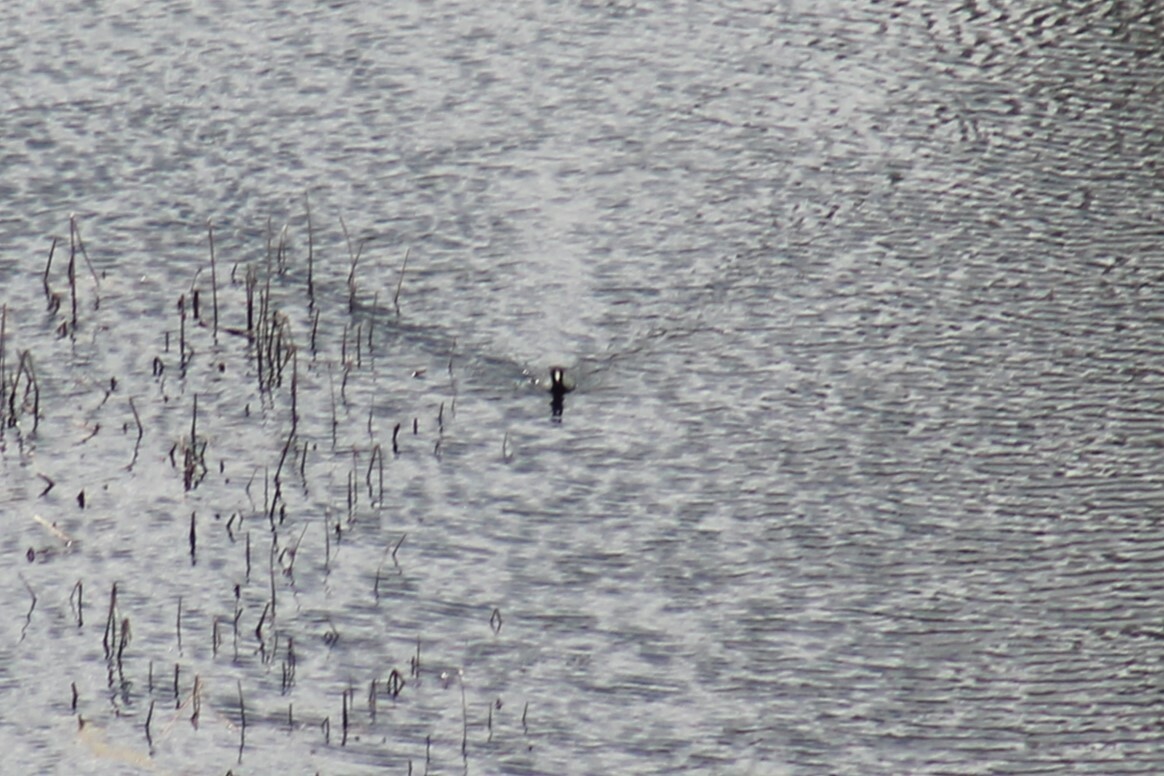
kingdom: Animalia
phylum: Chordata
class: Aves
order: Gruiformes
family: Rallidae
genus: Fulica
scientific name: Fulica americana
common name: American coot
